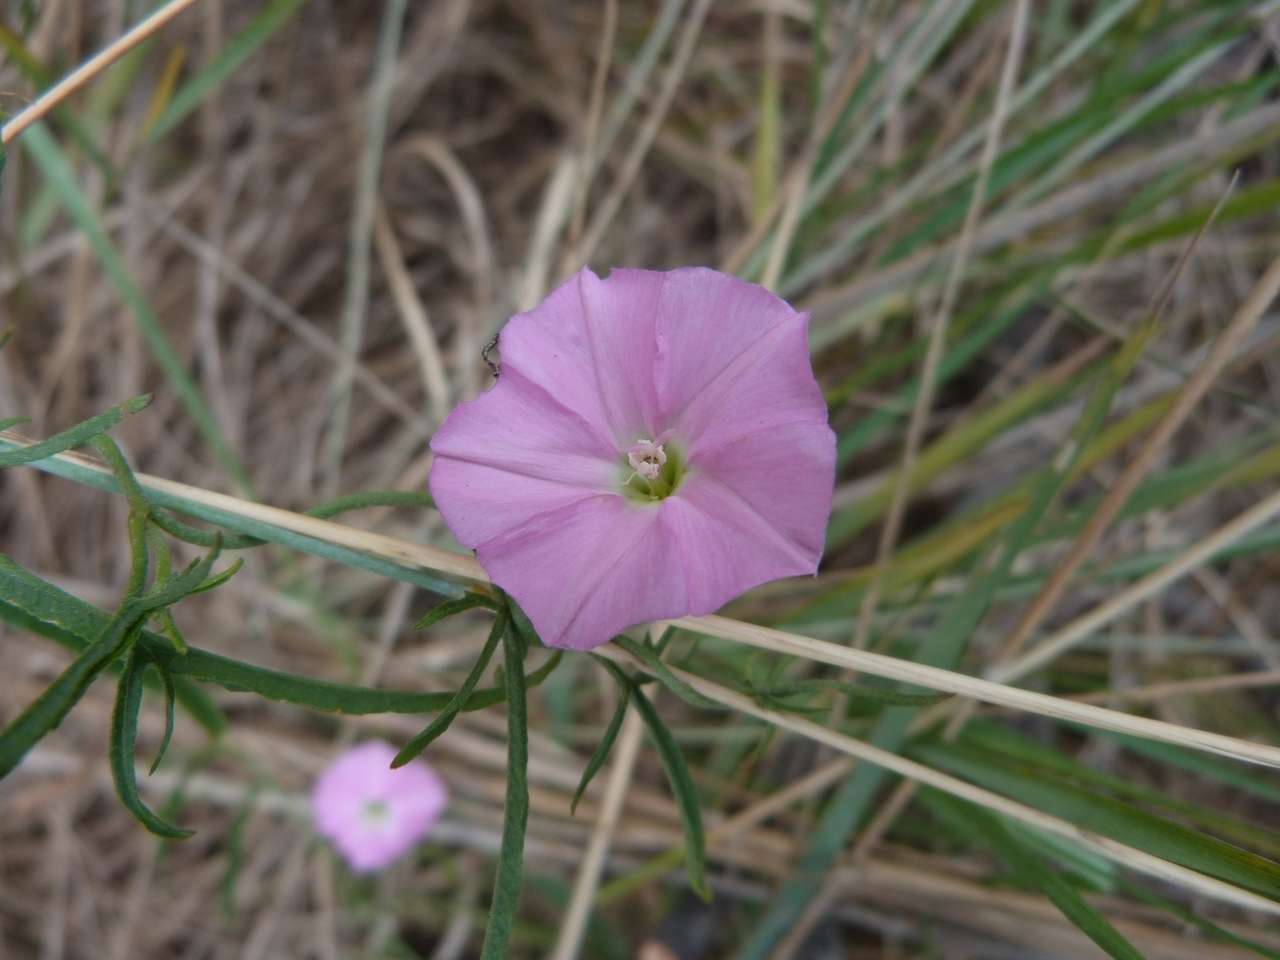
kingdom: Plantae
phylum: Tracheophyta
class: Magnoliopsida
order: Solanales
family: Convolvulaceae
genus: Convolvulus
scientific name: Convolvulus angustissimus
